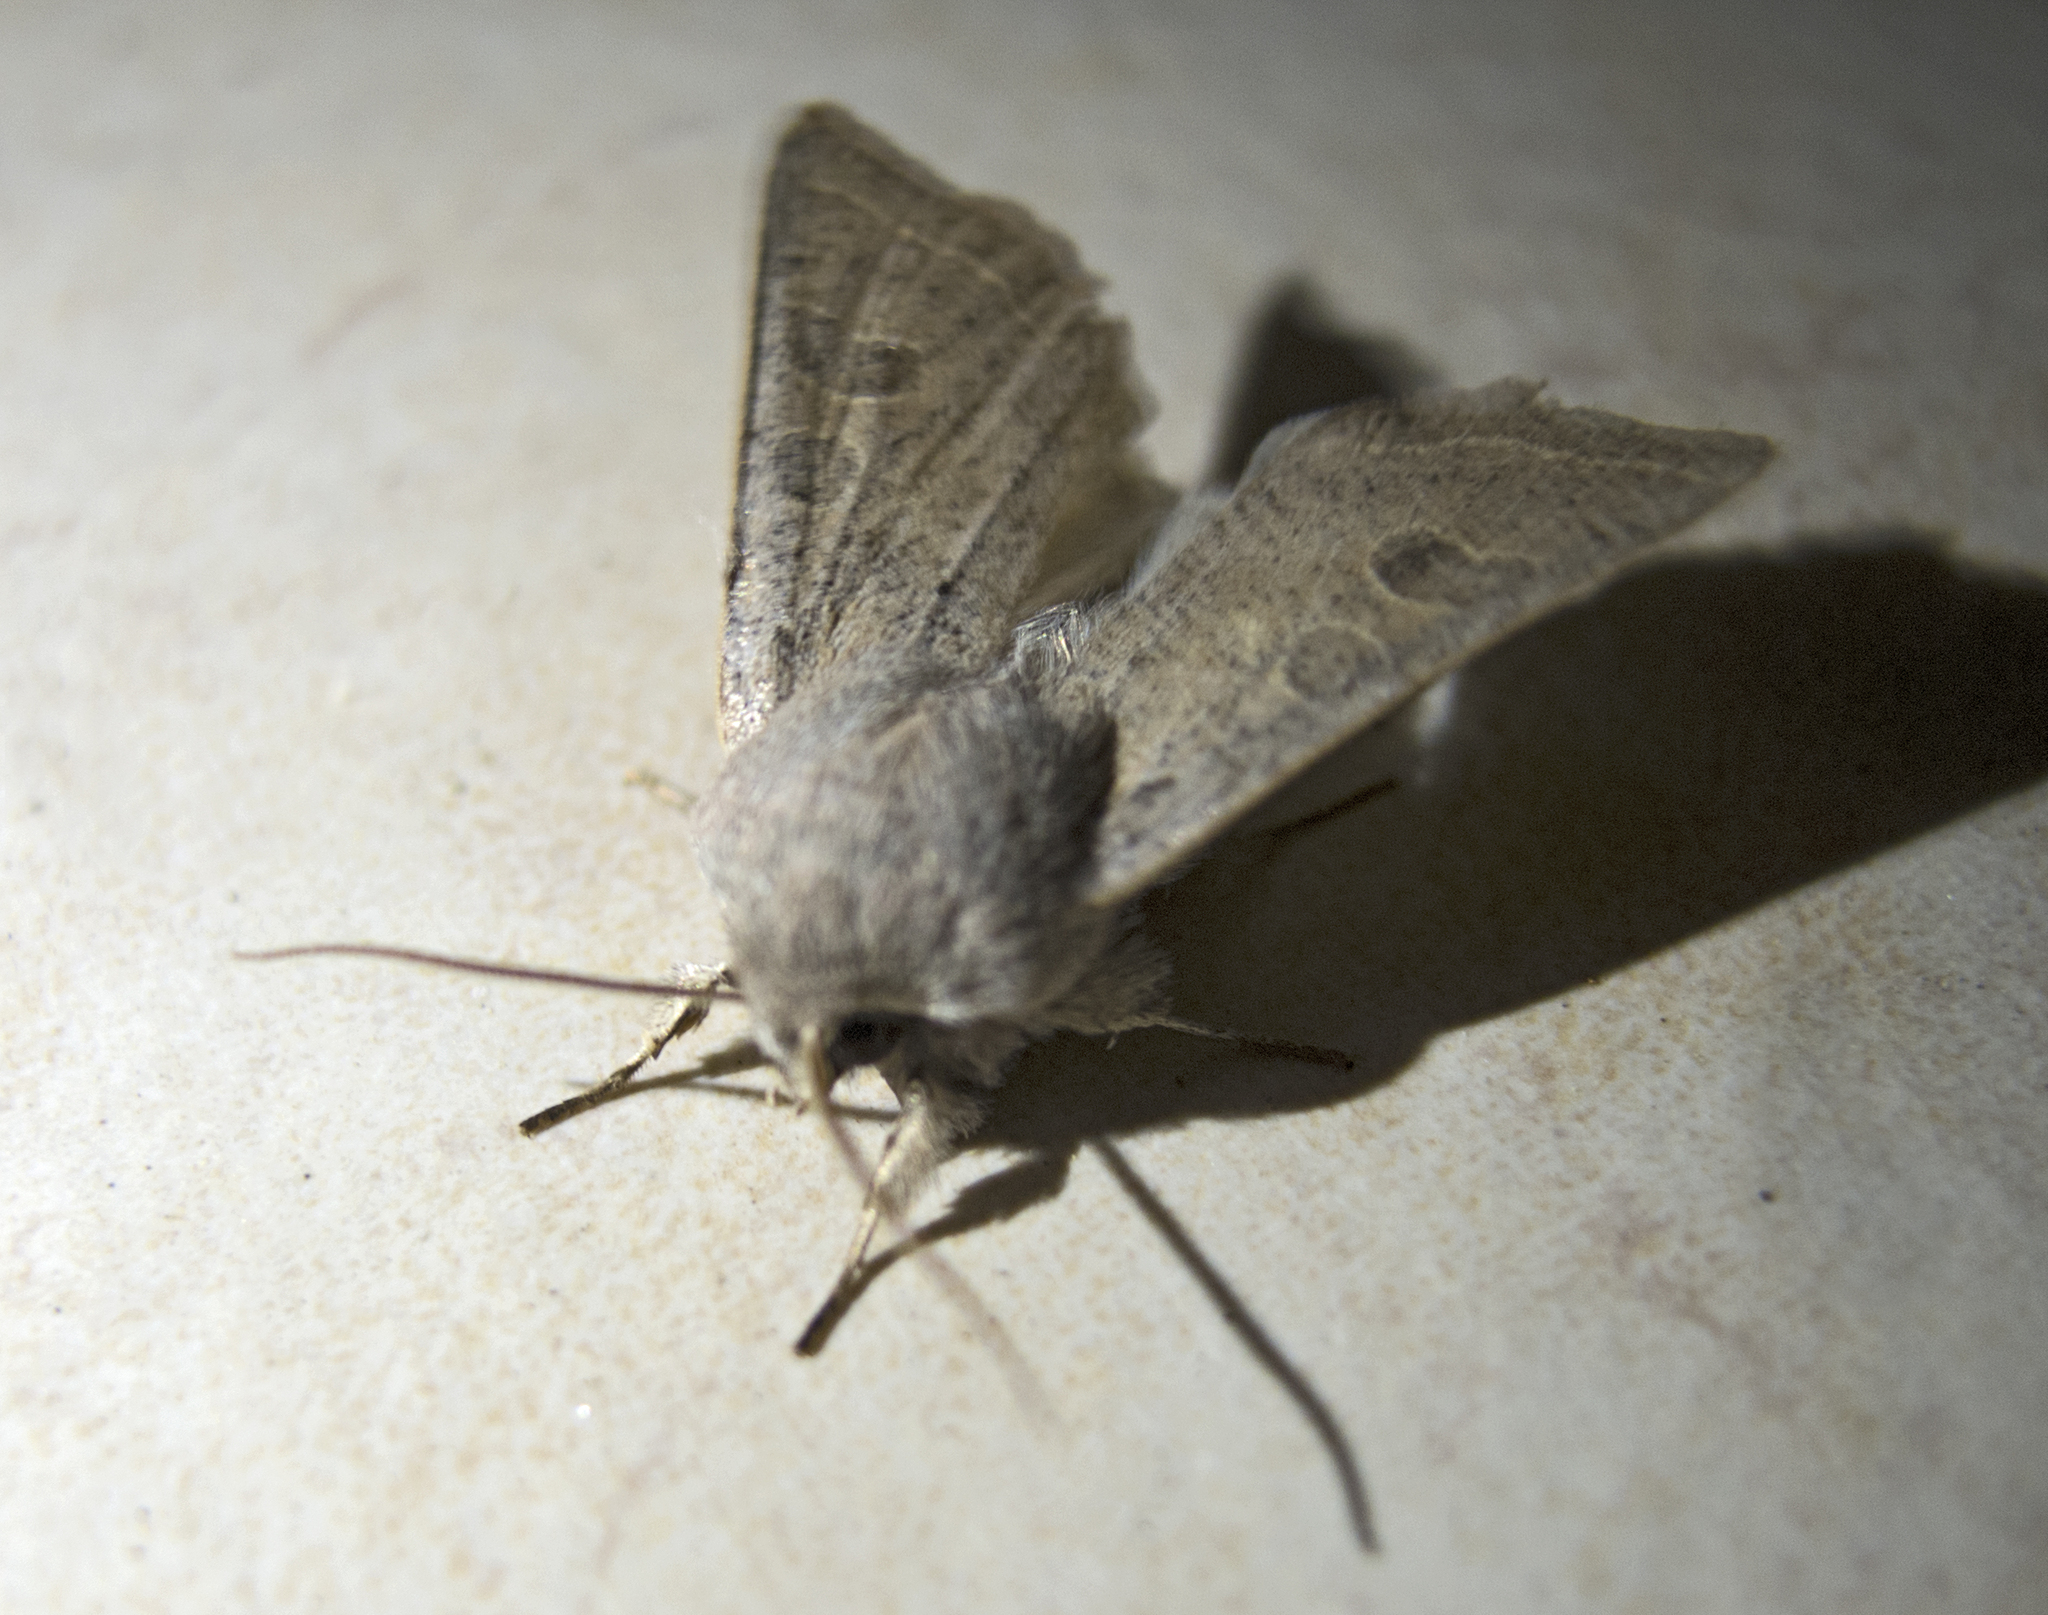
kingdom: Animalia
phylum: Arthropoda
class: Insecta
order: Lepidoptera
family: Noctuidae
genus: Orthosia
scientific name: Orthosia gracilis
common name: Powdered quaker
